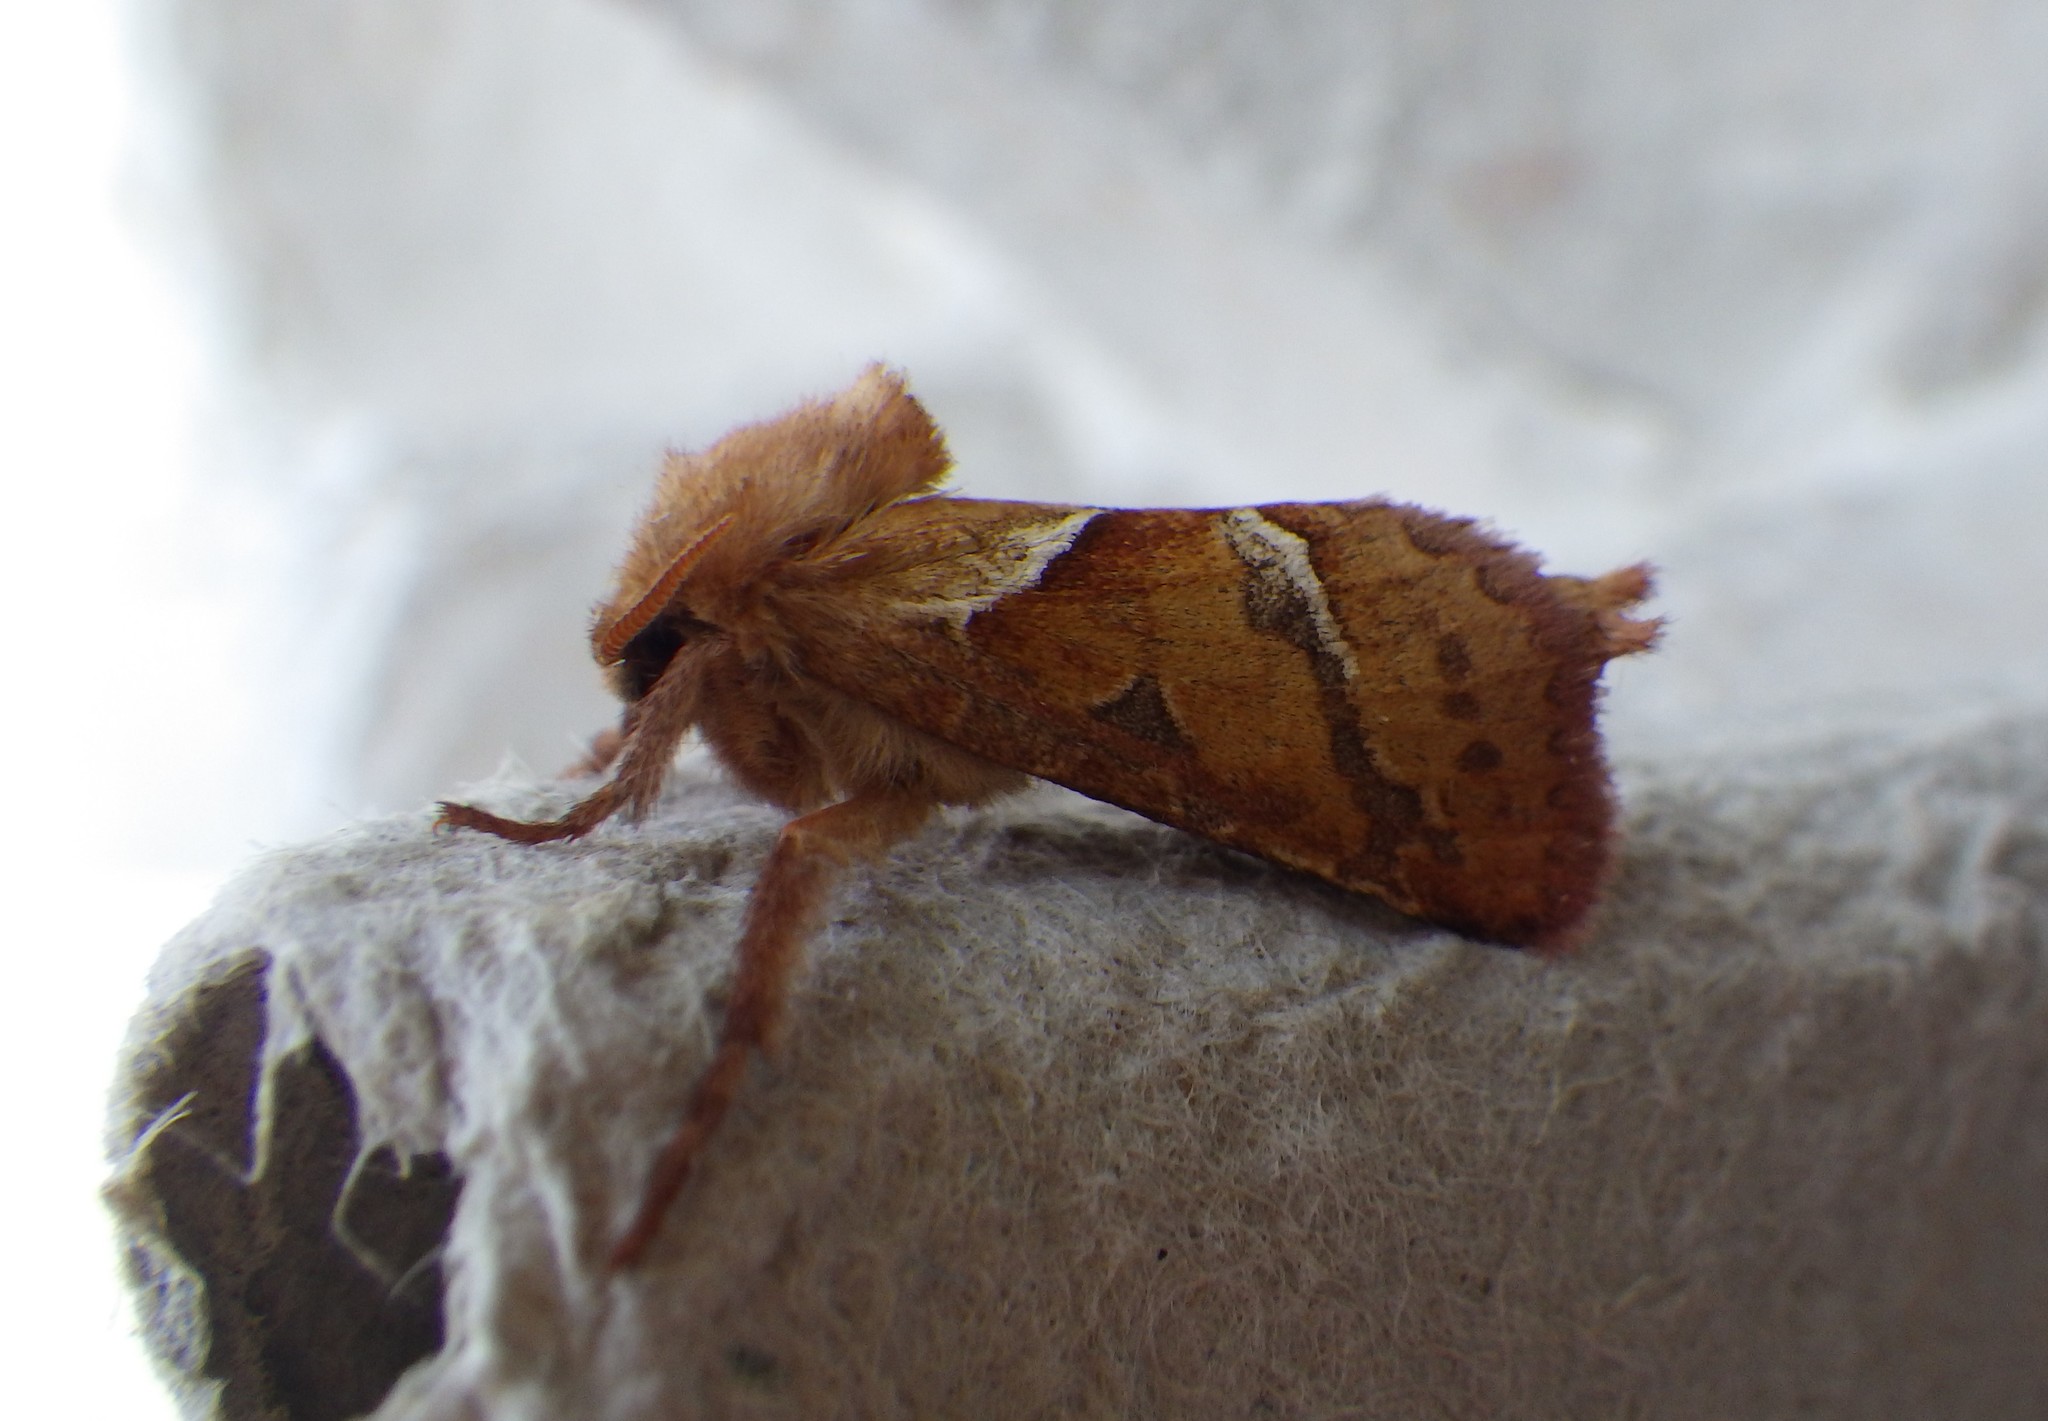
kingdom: Animalia
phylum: Arthropoda
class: Insecta
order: Lepidoptera
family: Hepialidae
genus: Triodia
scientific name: Triodia sylvina
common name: Orange swift
